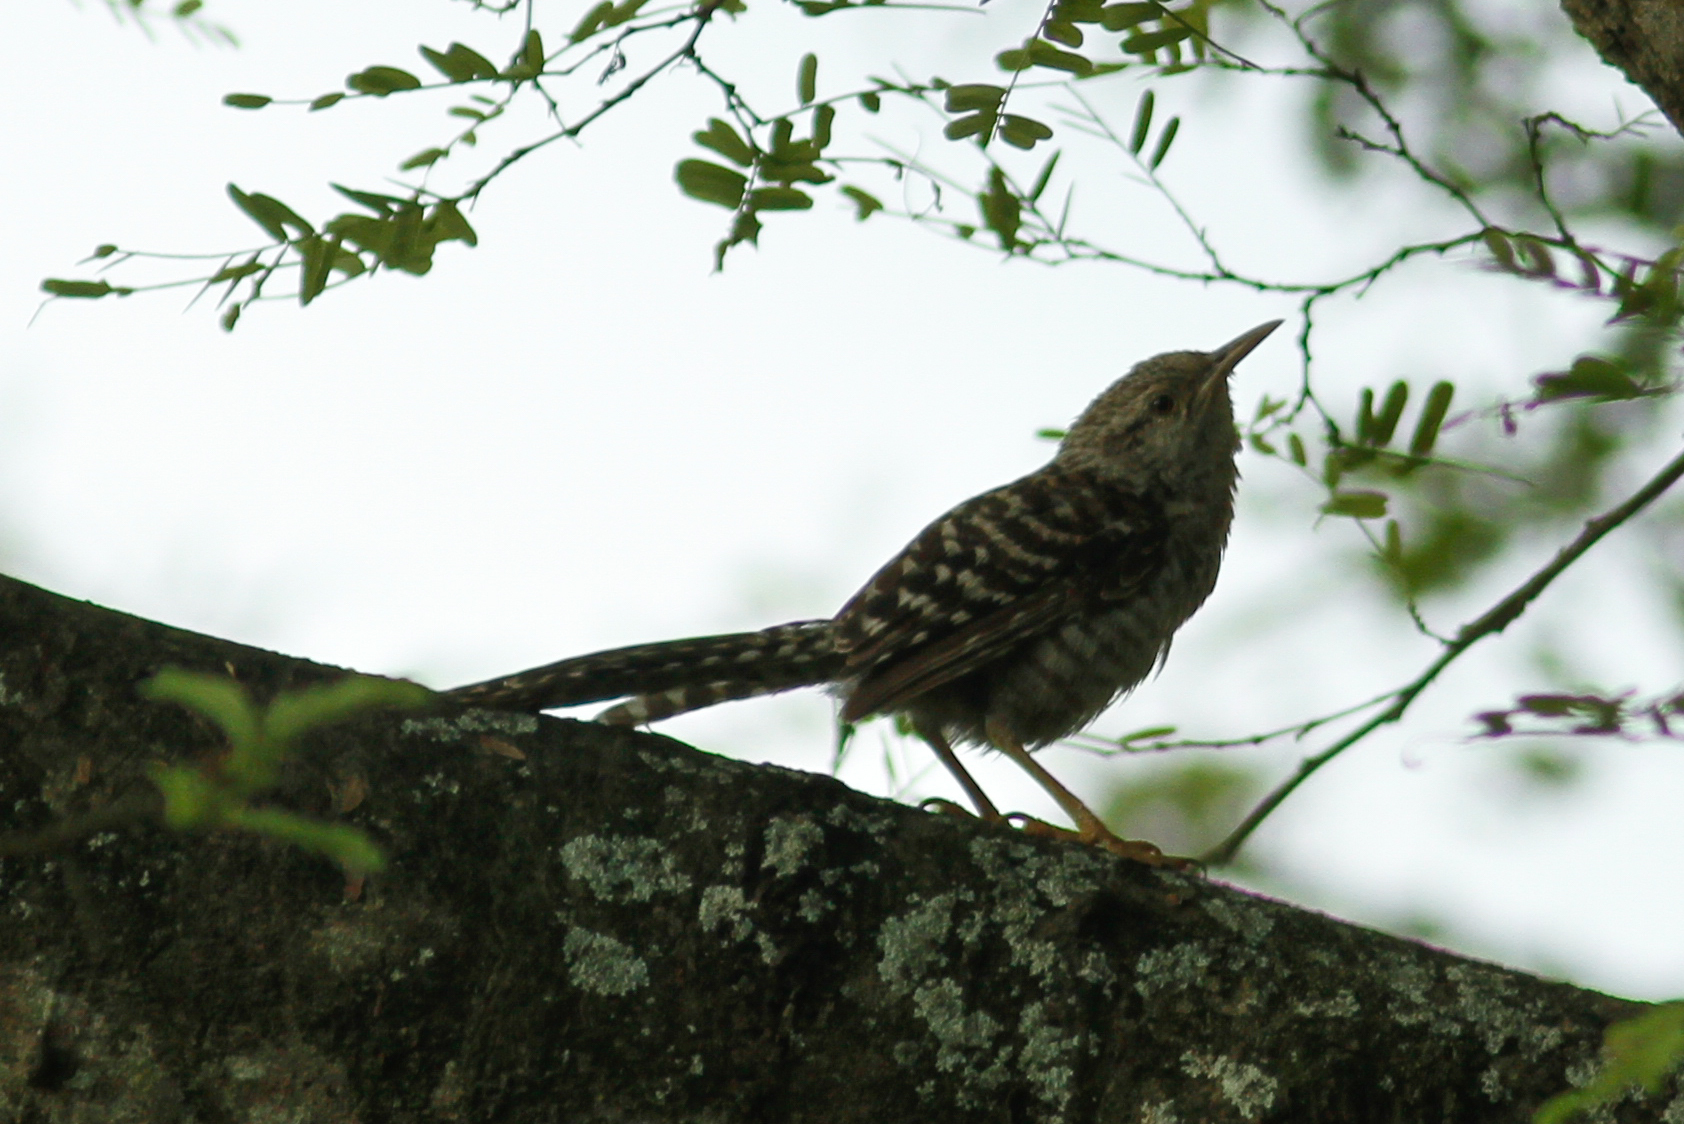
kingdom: Animalia
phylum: Chordata
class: Aves
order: Passeriformes
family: Troglodytidae
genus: Campylorhynchus
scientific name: Campylorhynchus fasciatus
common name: Fasciated wren
